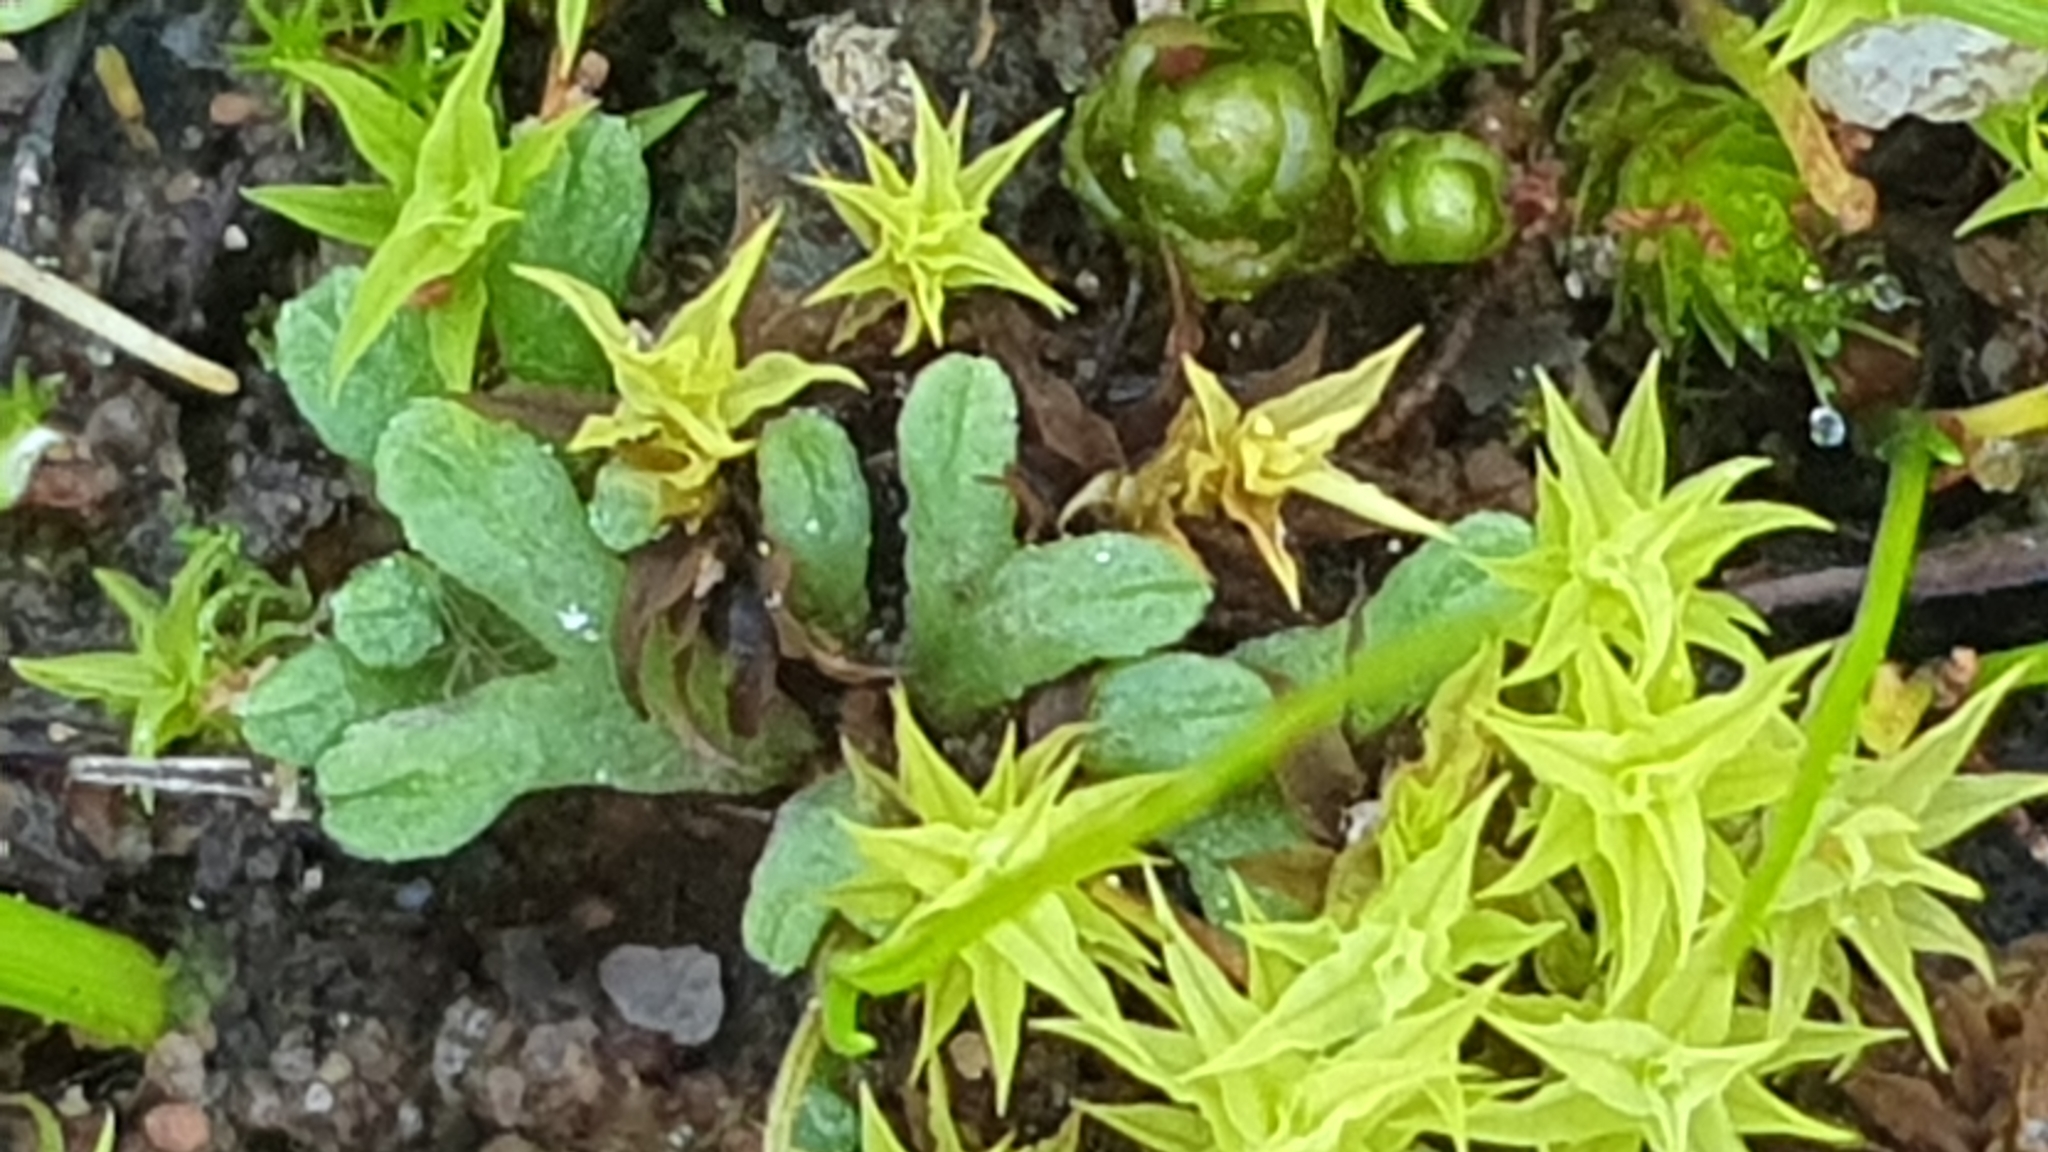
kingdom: Plantae
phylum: Marchantiophyta
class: Marchantiopsida
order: Marchantiales
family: Ricciaceae
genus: Riccia
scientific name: Riccia subbifurca
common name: Least crystalwort
